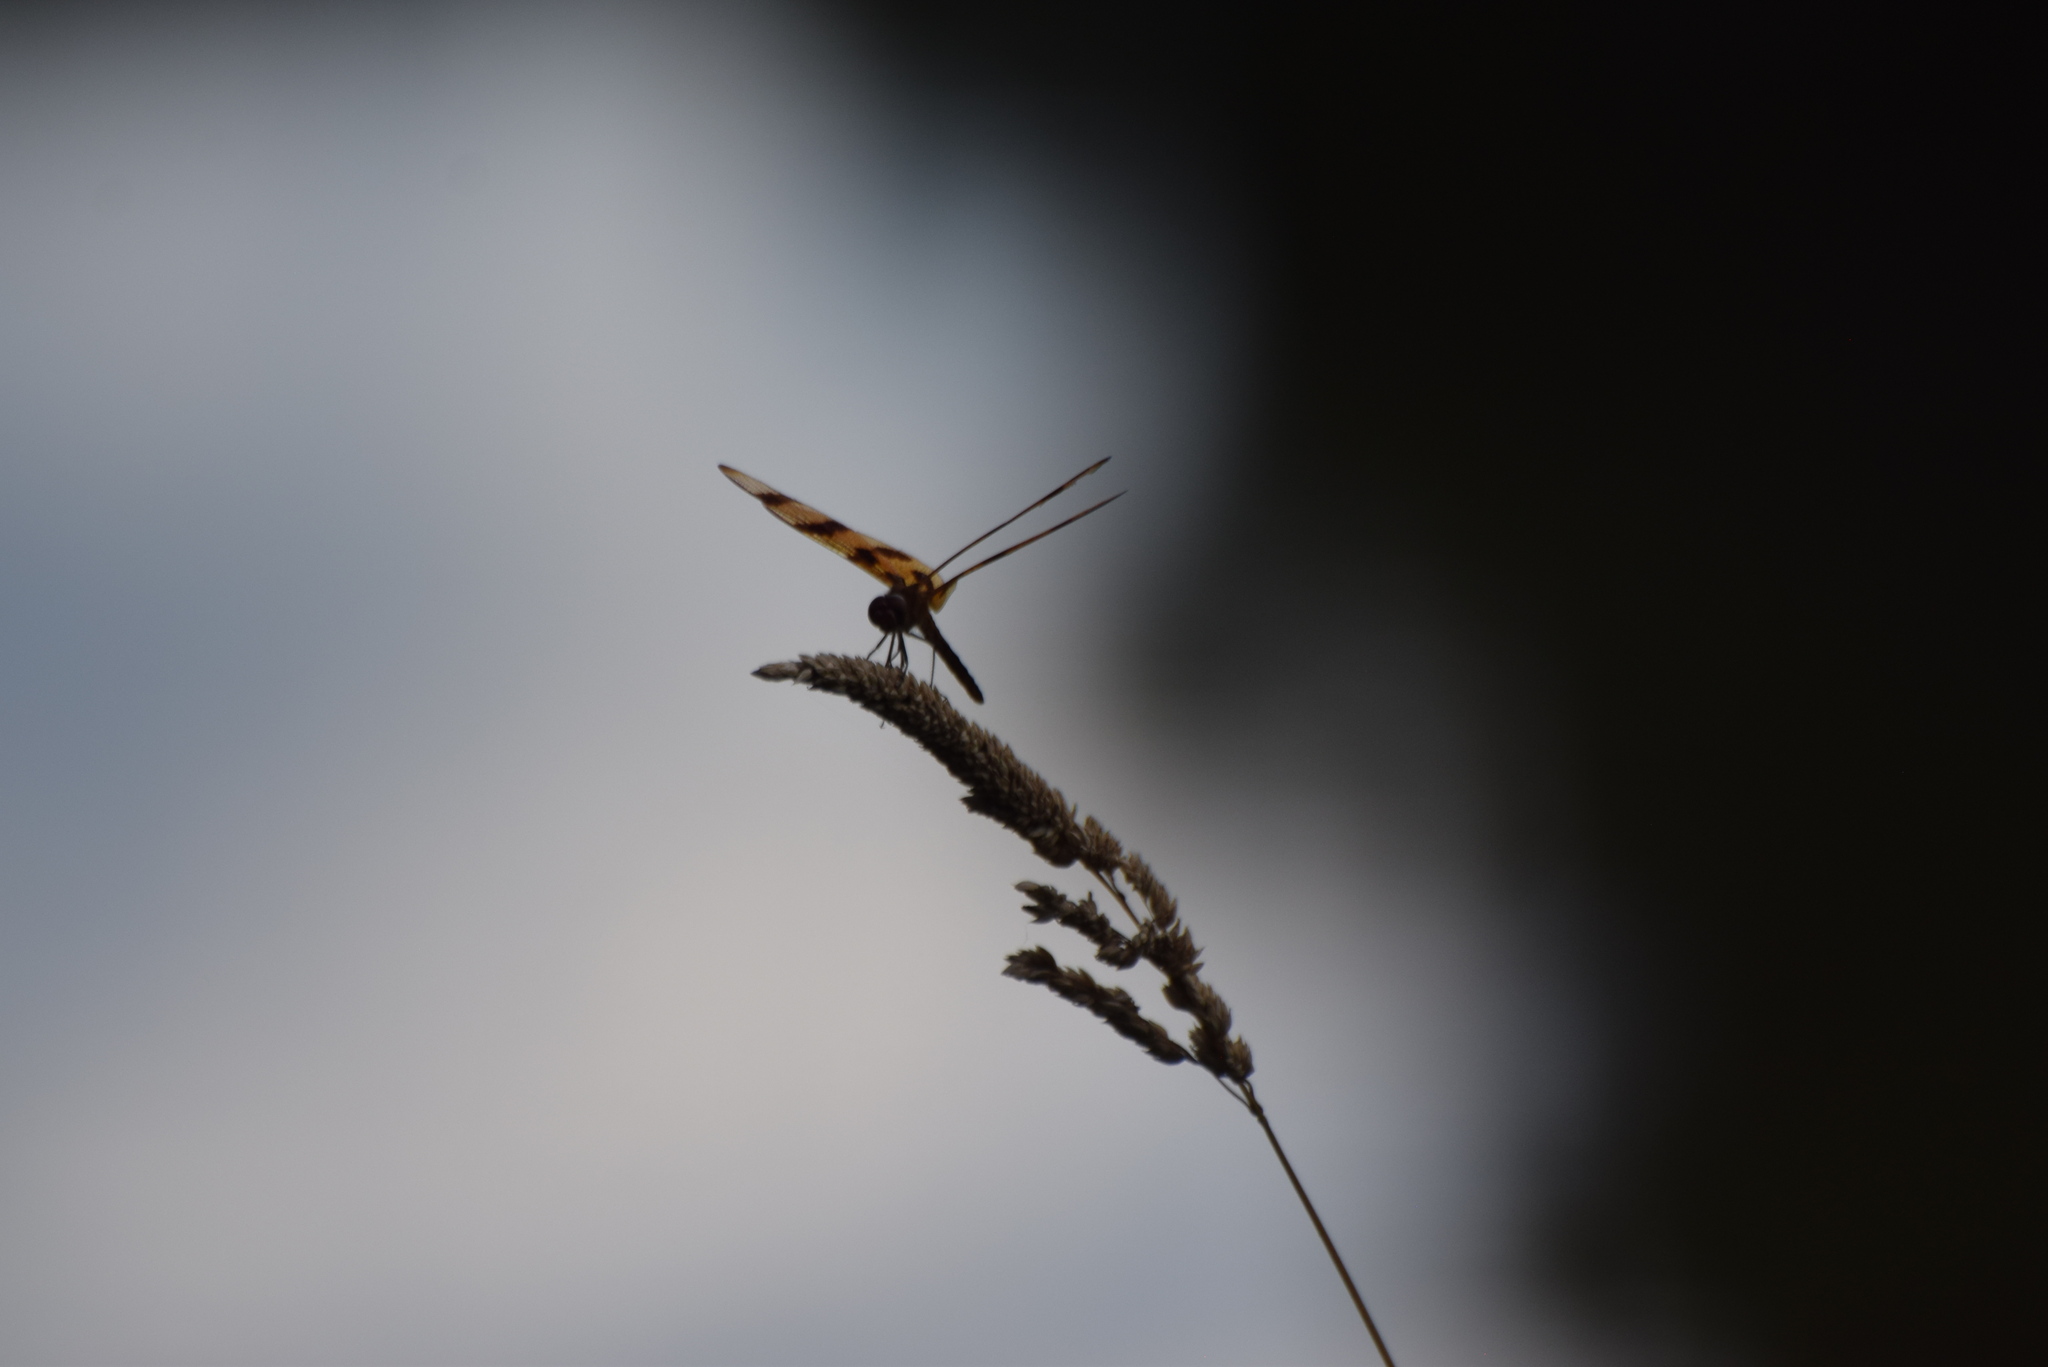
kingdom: Animalia
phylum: Arthropoda
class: Insecta
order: Odonata
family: Libellulidae
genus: Celithemis
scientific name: Celithemis eponina
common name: Halloween pennant
